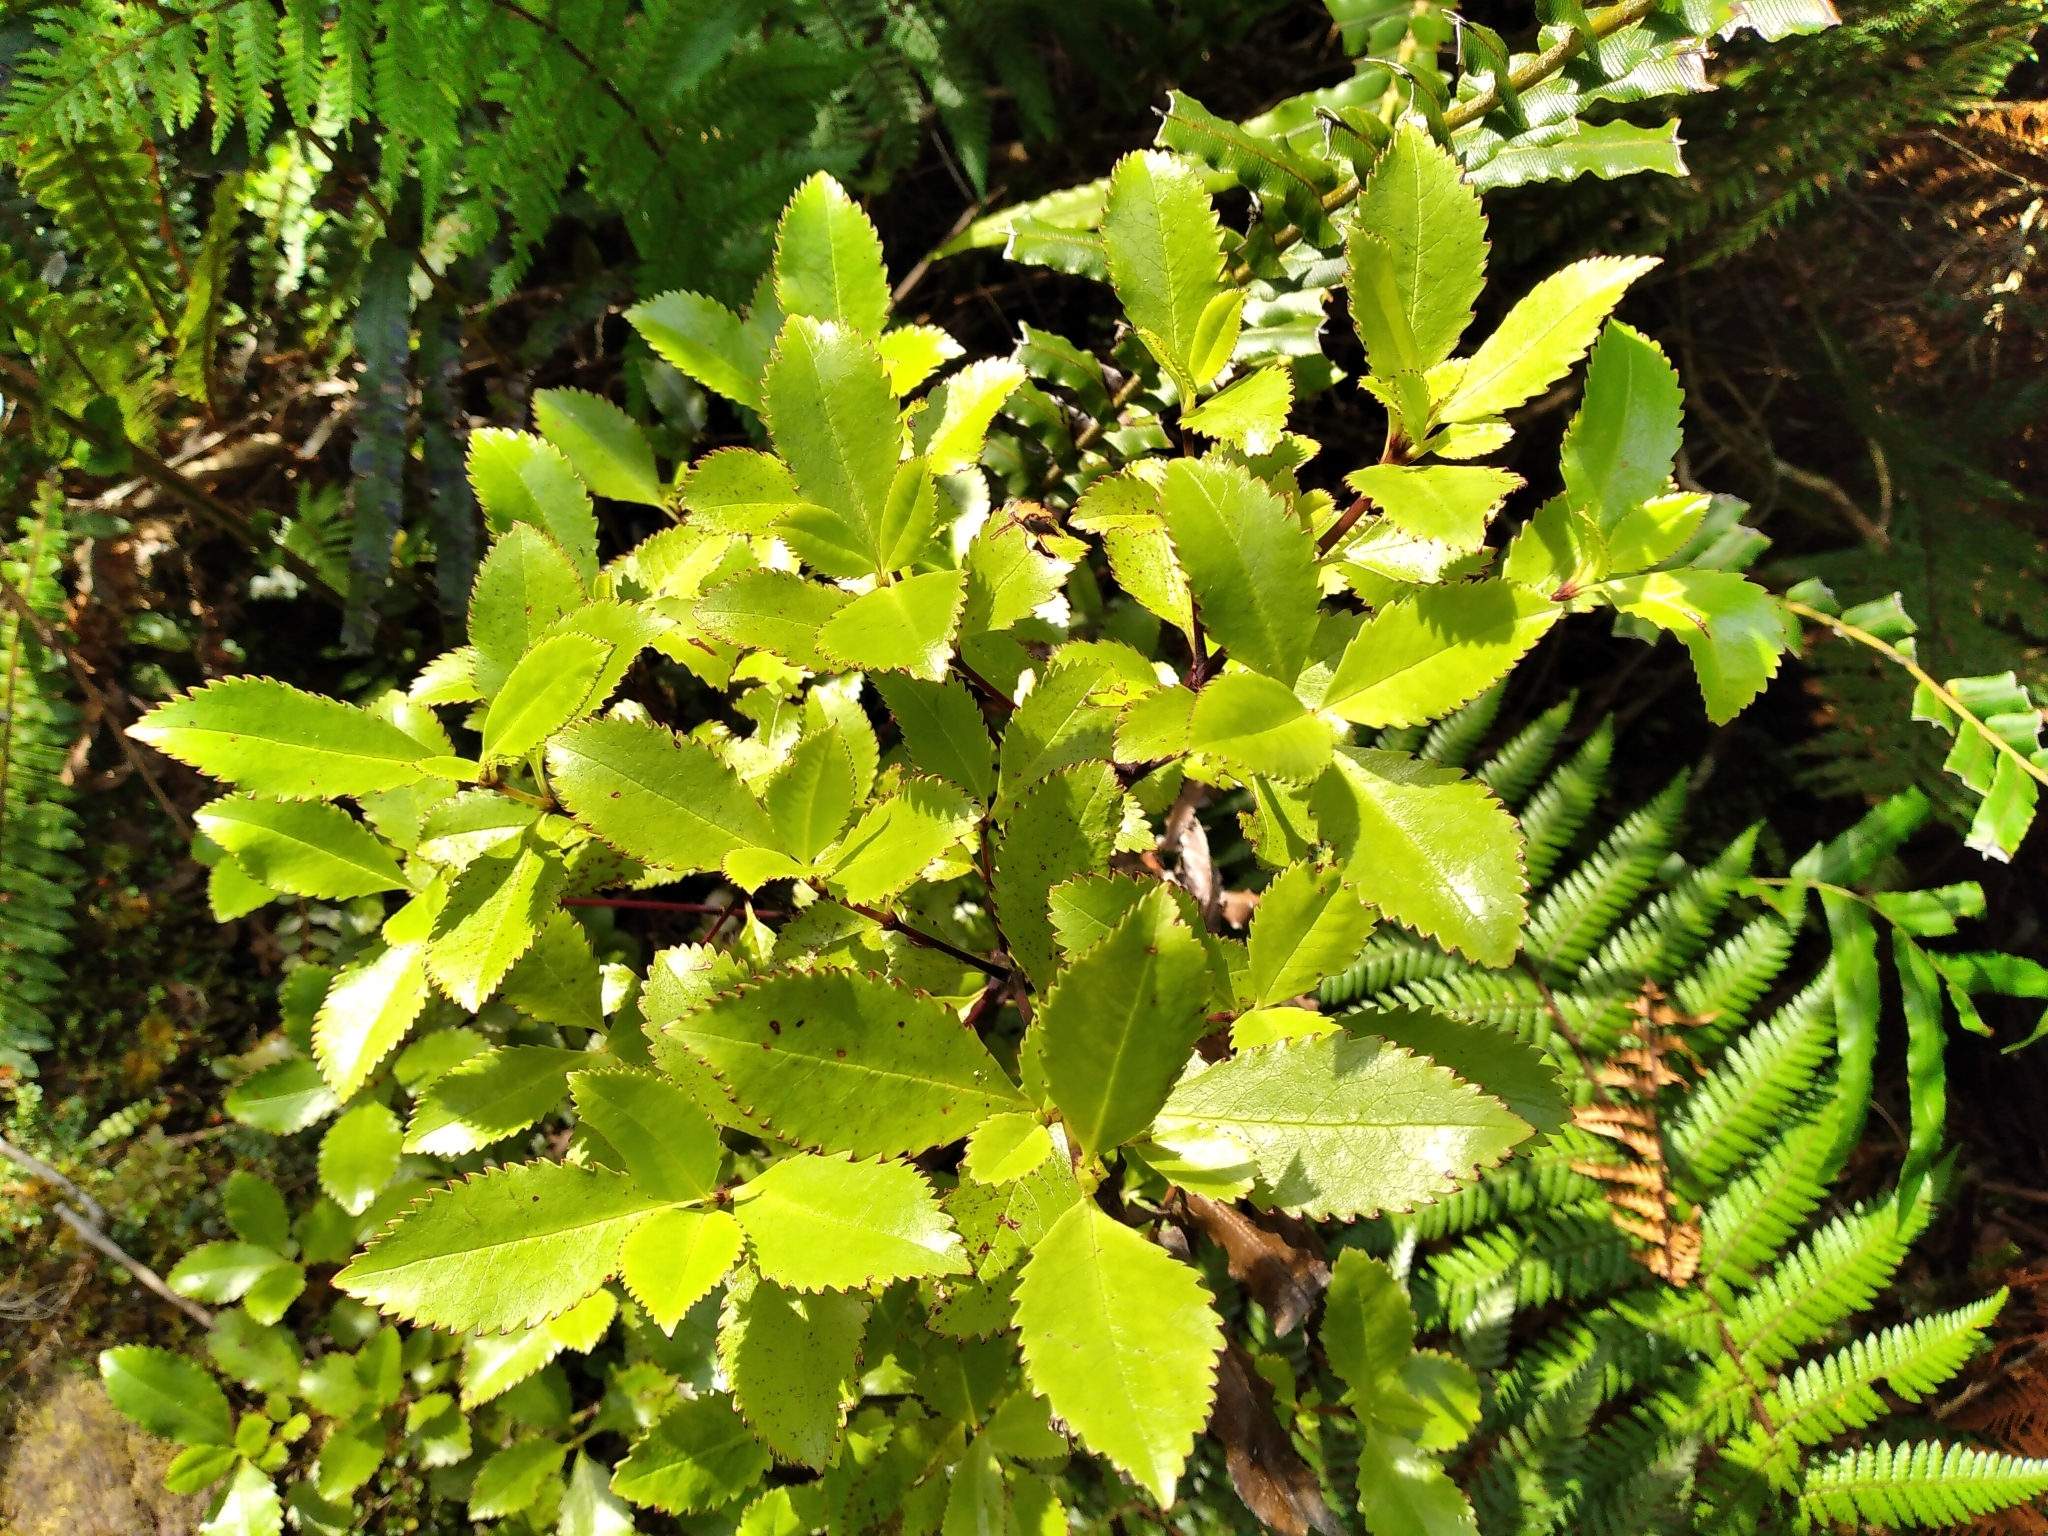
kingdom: Plantae
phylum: Tracheophyta
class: Magnoliopsida
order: Chloranthales
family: Chloranthaceae
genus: Ascarina
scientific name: Ascarina lucida
